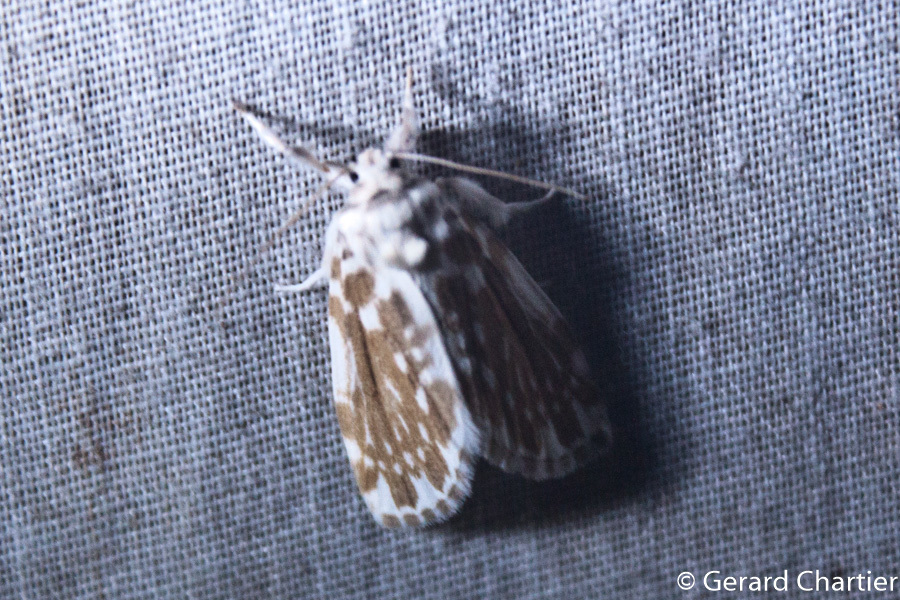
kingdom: Animalia
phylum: Arthropoda
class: Insecta
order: Lepidoptera
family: Erebidae
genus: Pseudoadites
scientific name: Pseudoadites frigida
